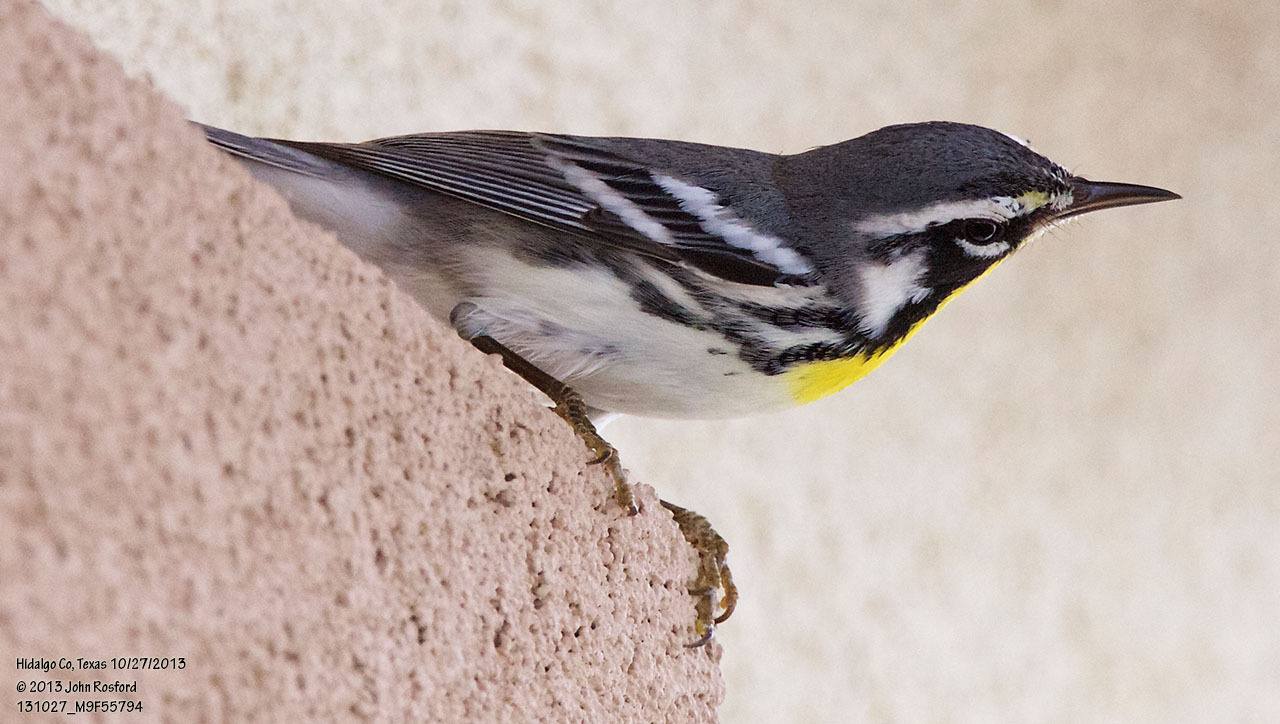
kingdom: Animalia
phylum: Chordata
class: Aves
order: Passeriformes
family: Parulidae
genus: Setophaga
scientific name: Setophaga dominica
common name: Yellow-throated warbler
